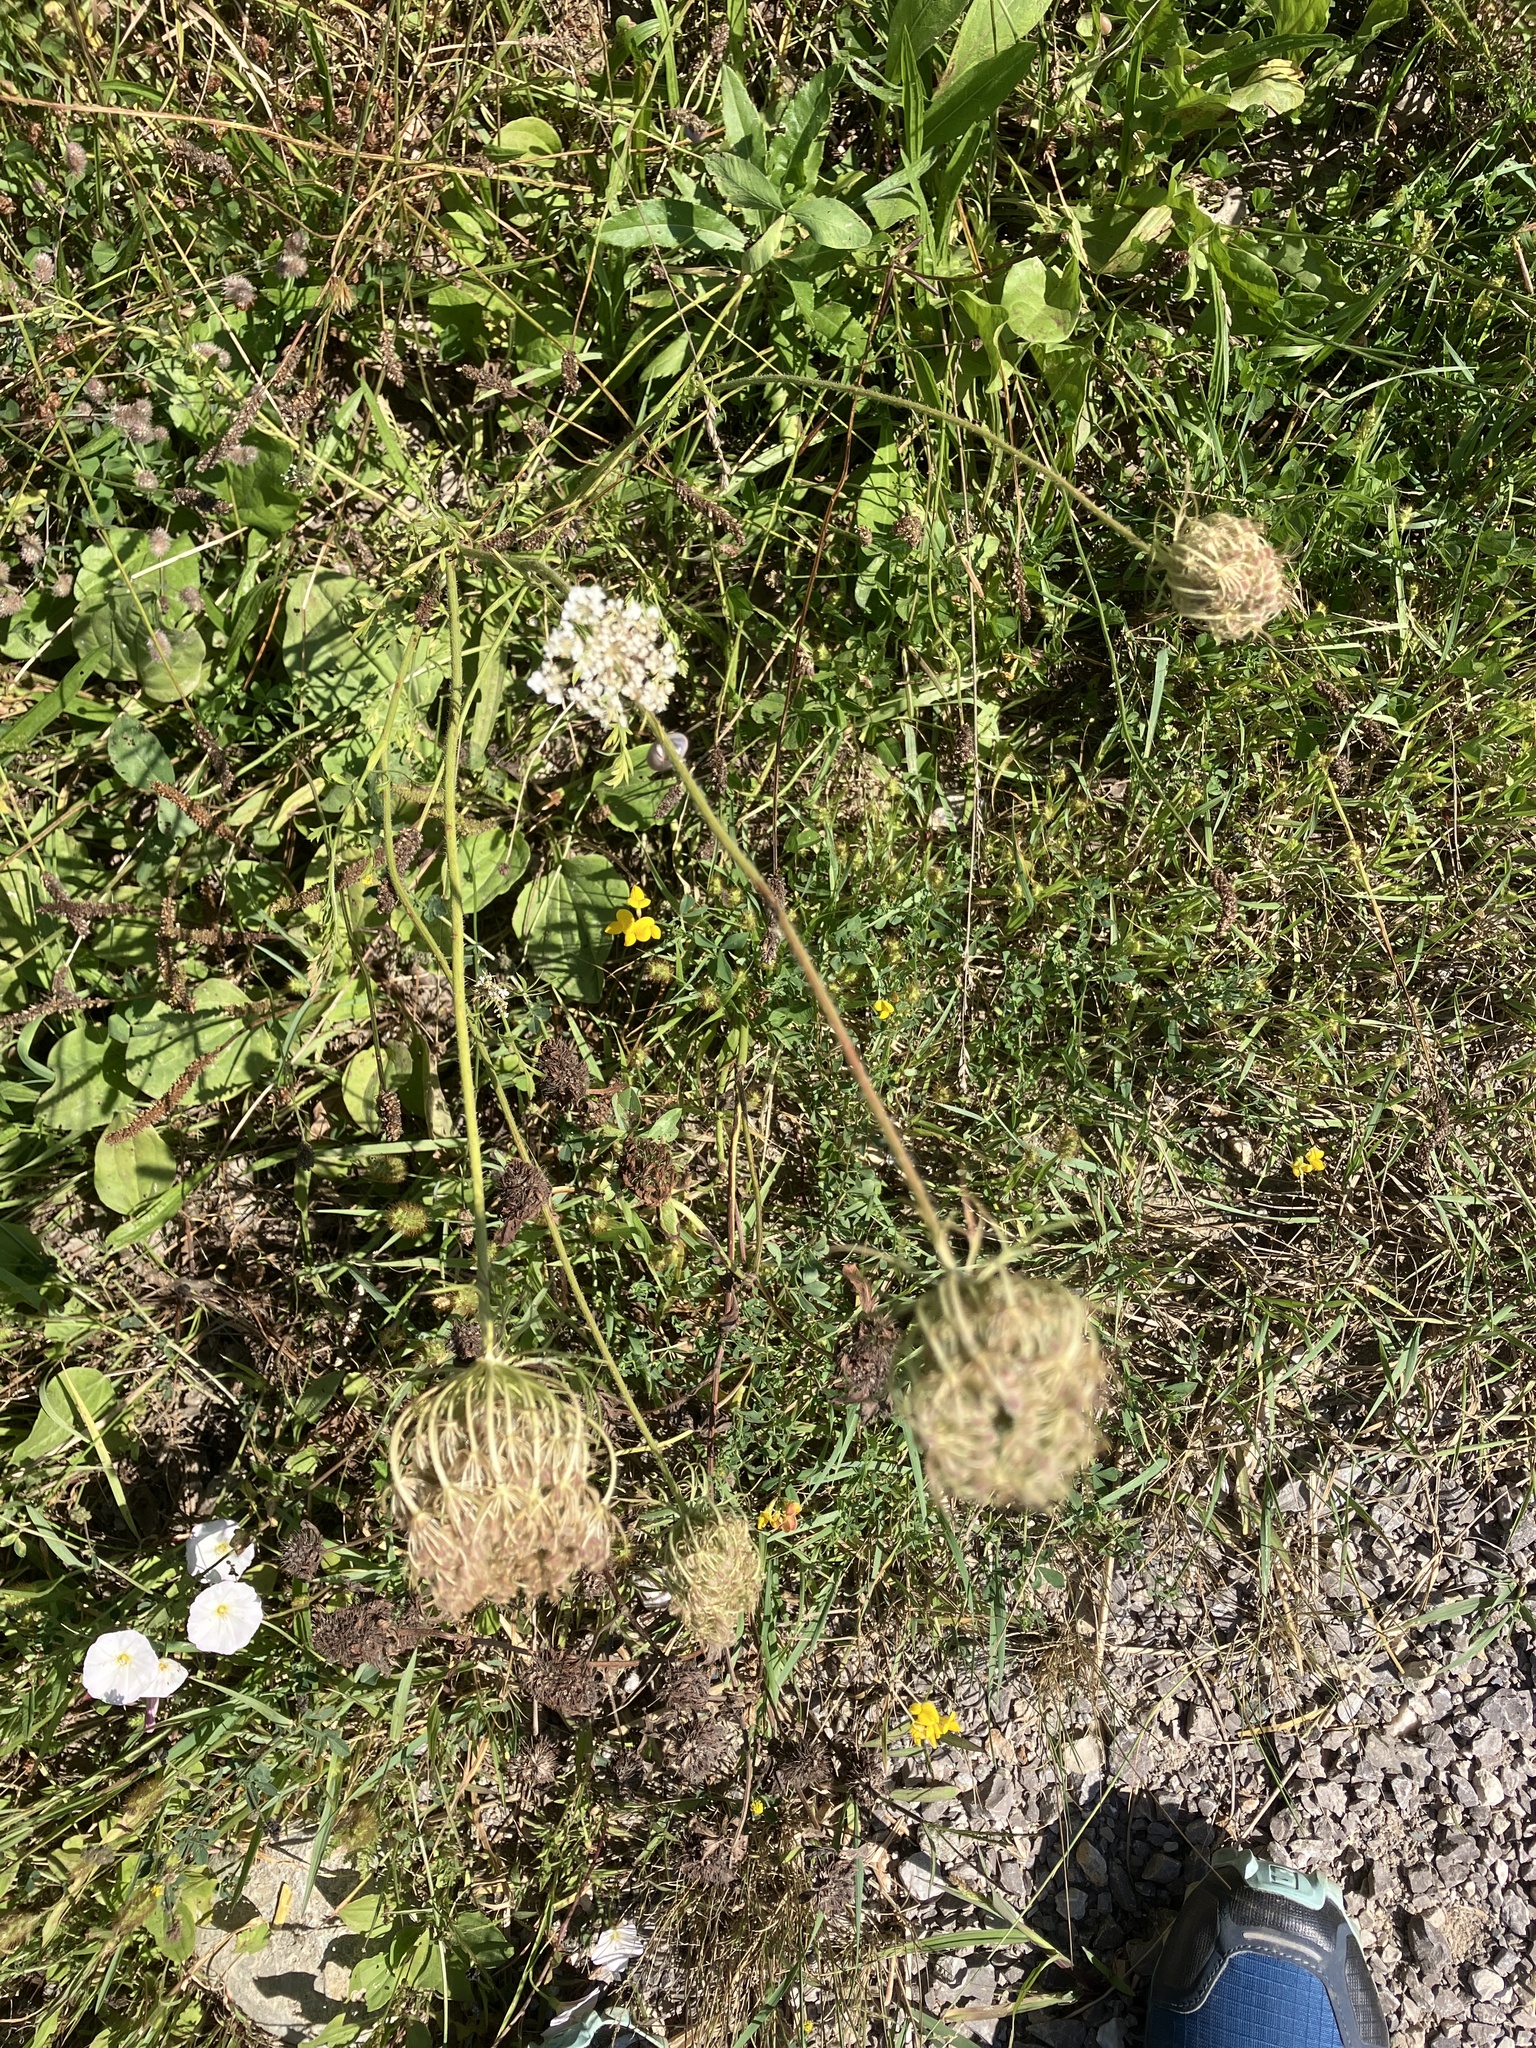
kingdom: Plantae
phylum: Tracheophyta
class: Magnoliopsida
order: Apiales
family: Apiaceae
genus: Daucus
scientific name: Daucus carota
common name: Wild carrot
